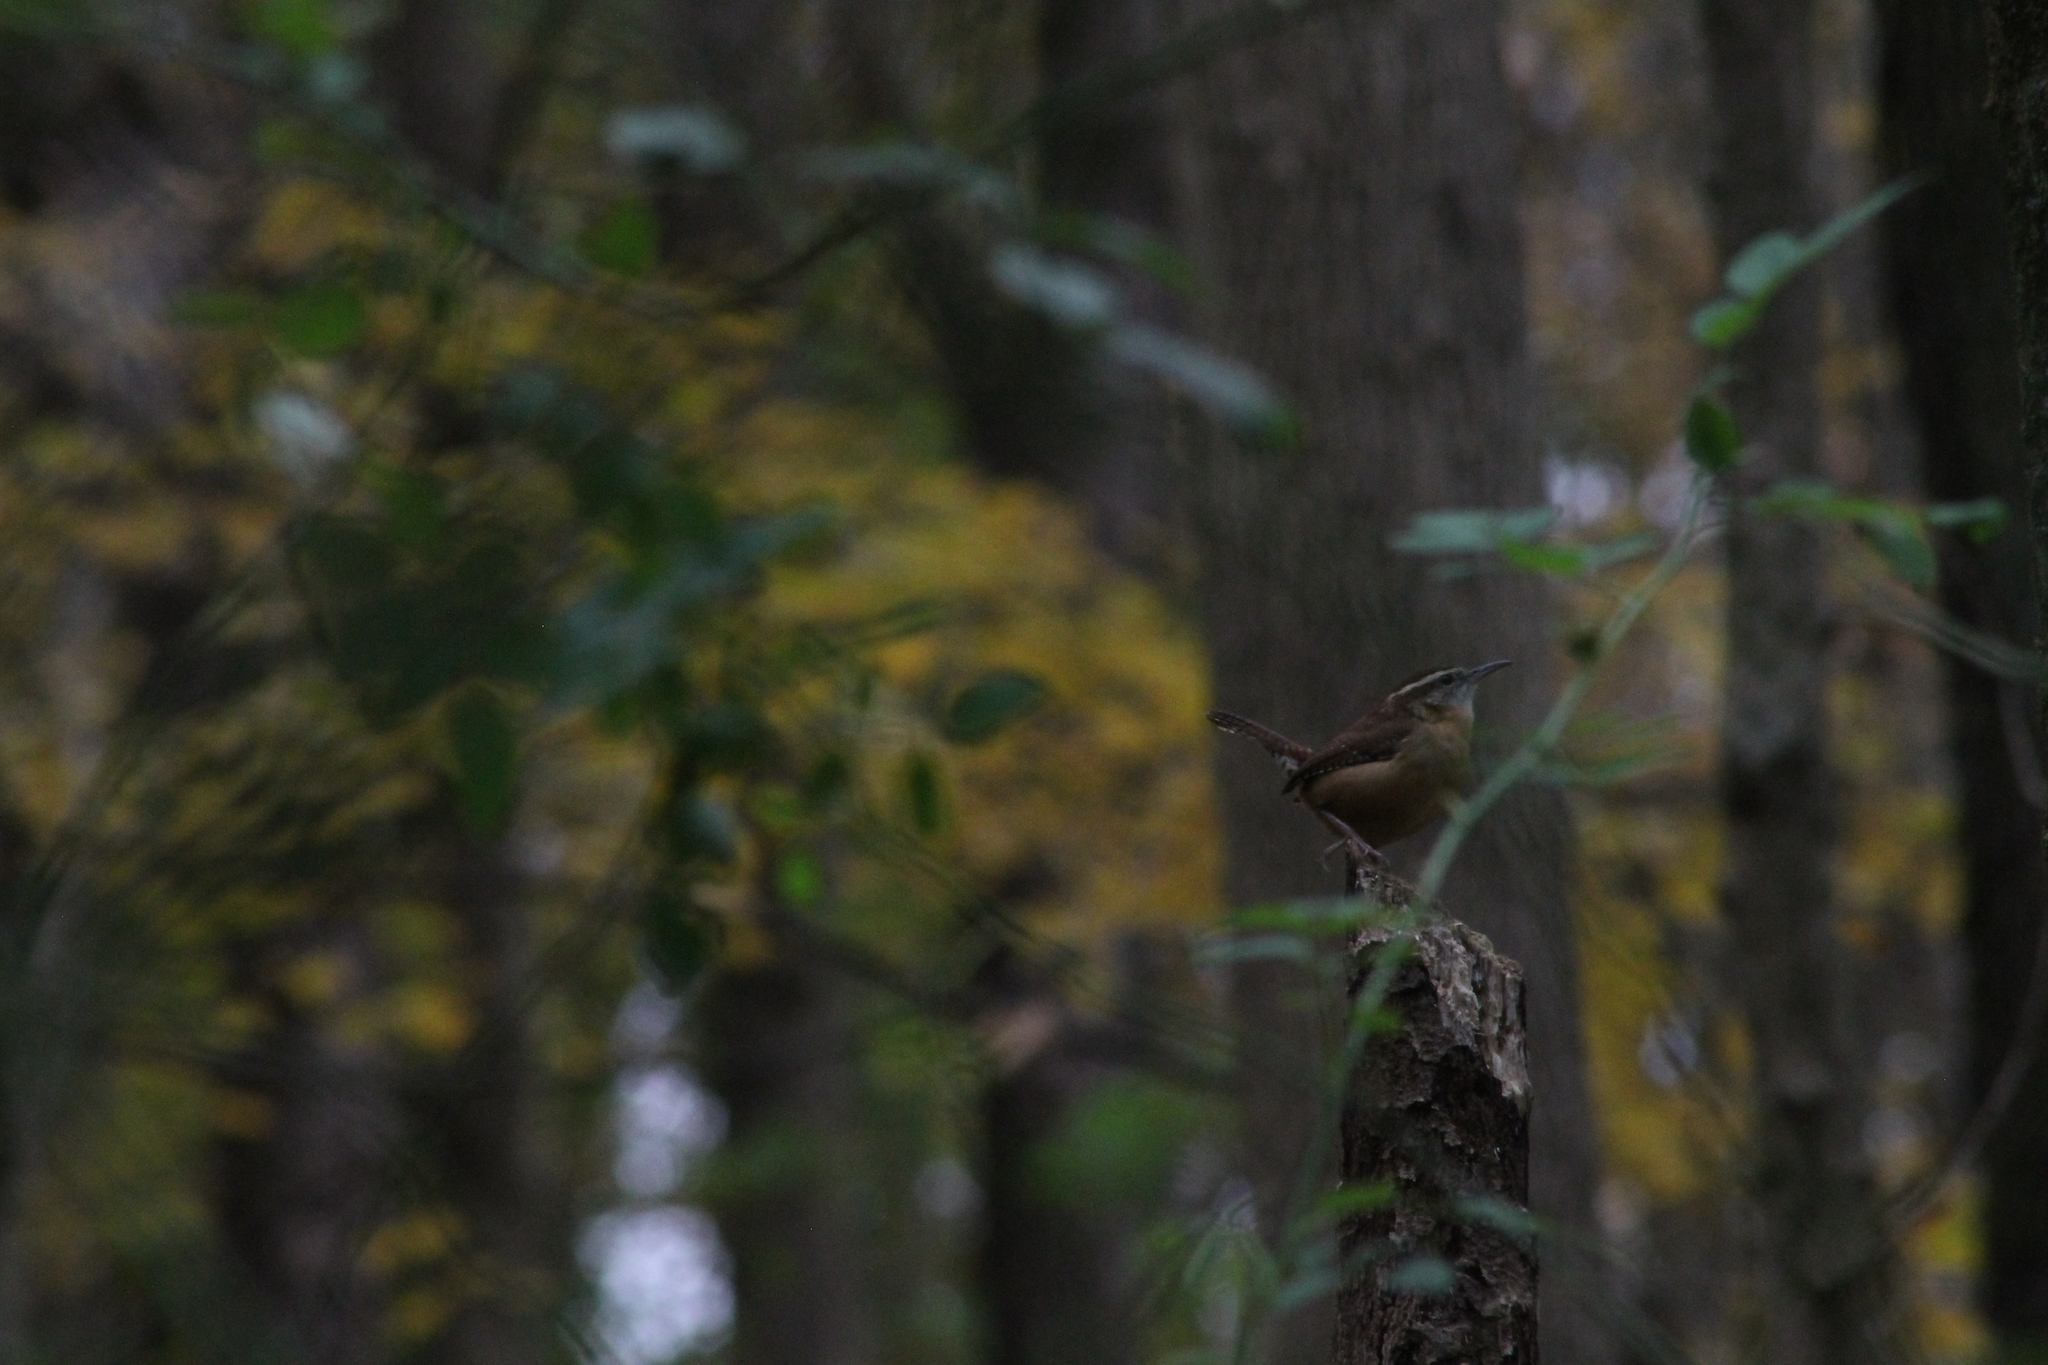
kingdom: Animalia
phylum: Chordata
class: Aves
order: Passeriformes
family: Troglodytidae
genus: Thryothorus
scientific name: Thryothorus ludovicianus
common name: Carolina wren
